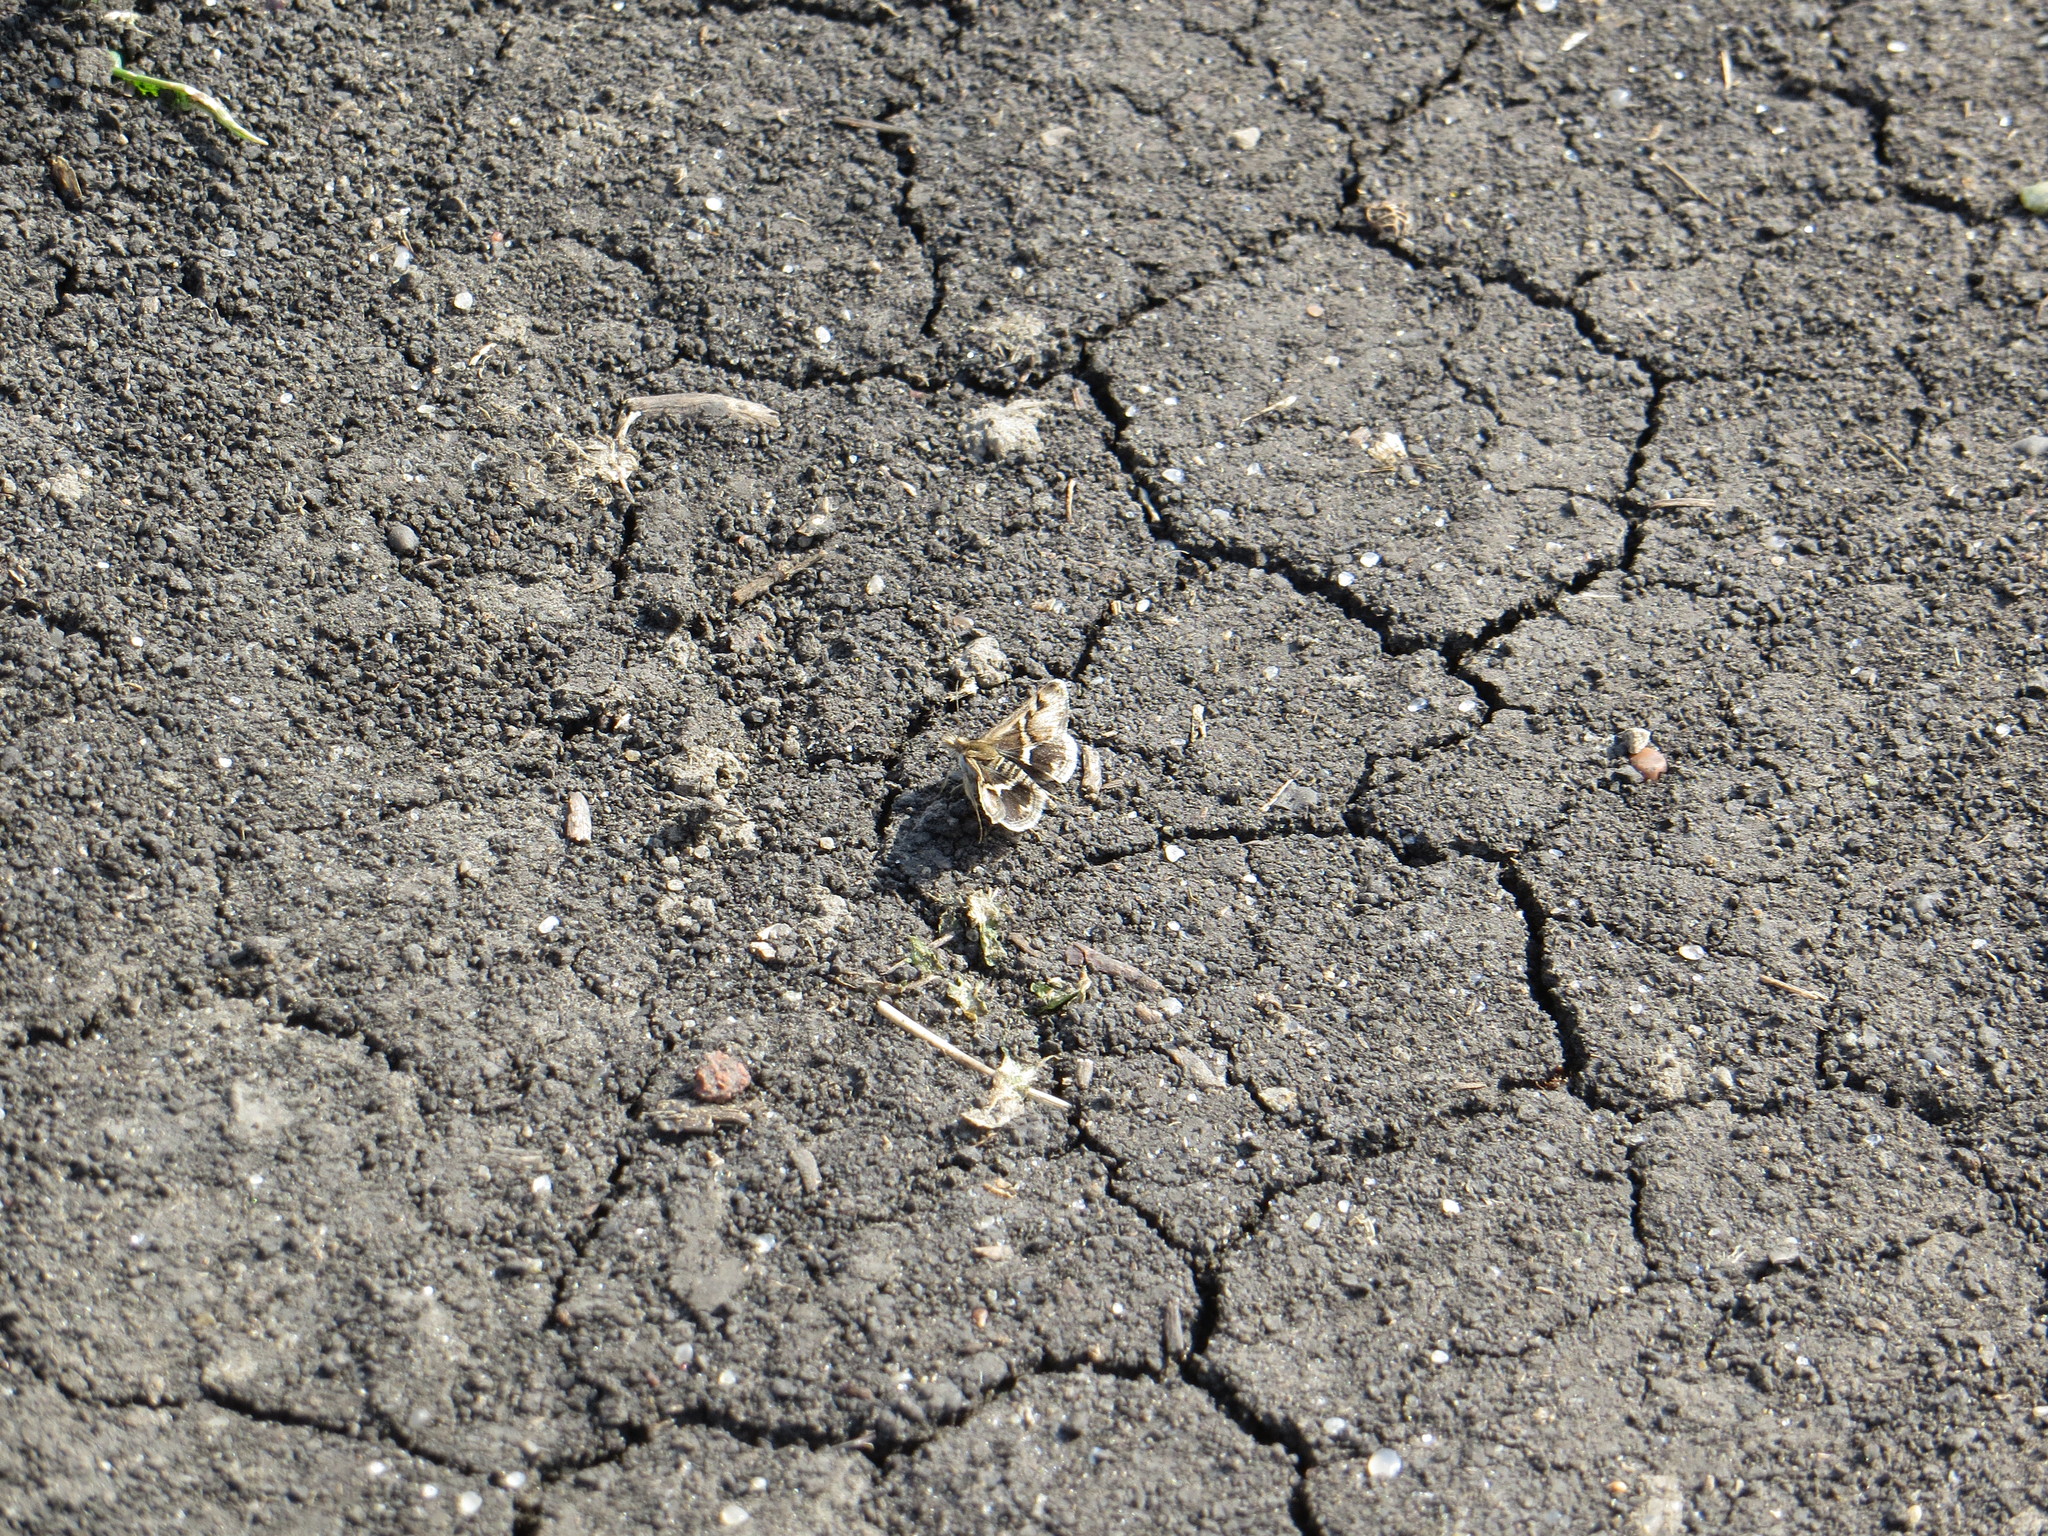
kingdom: Animalia
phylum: Arthropoda
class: Insecta
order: Lepidoptera
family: Crambidae
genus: Titanio
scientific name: Titanio normalis
